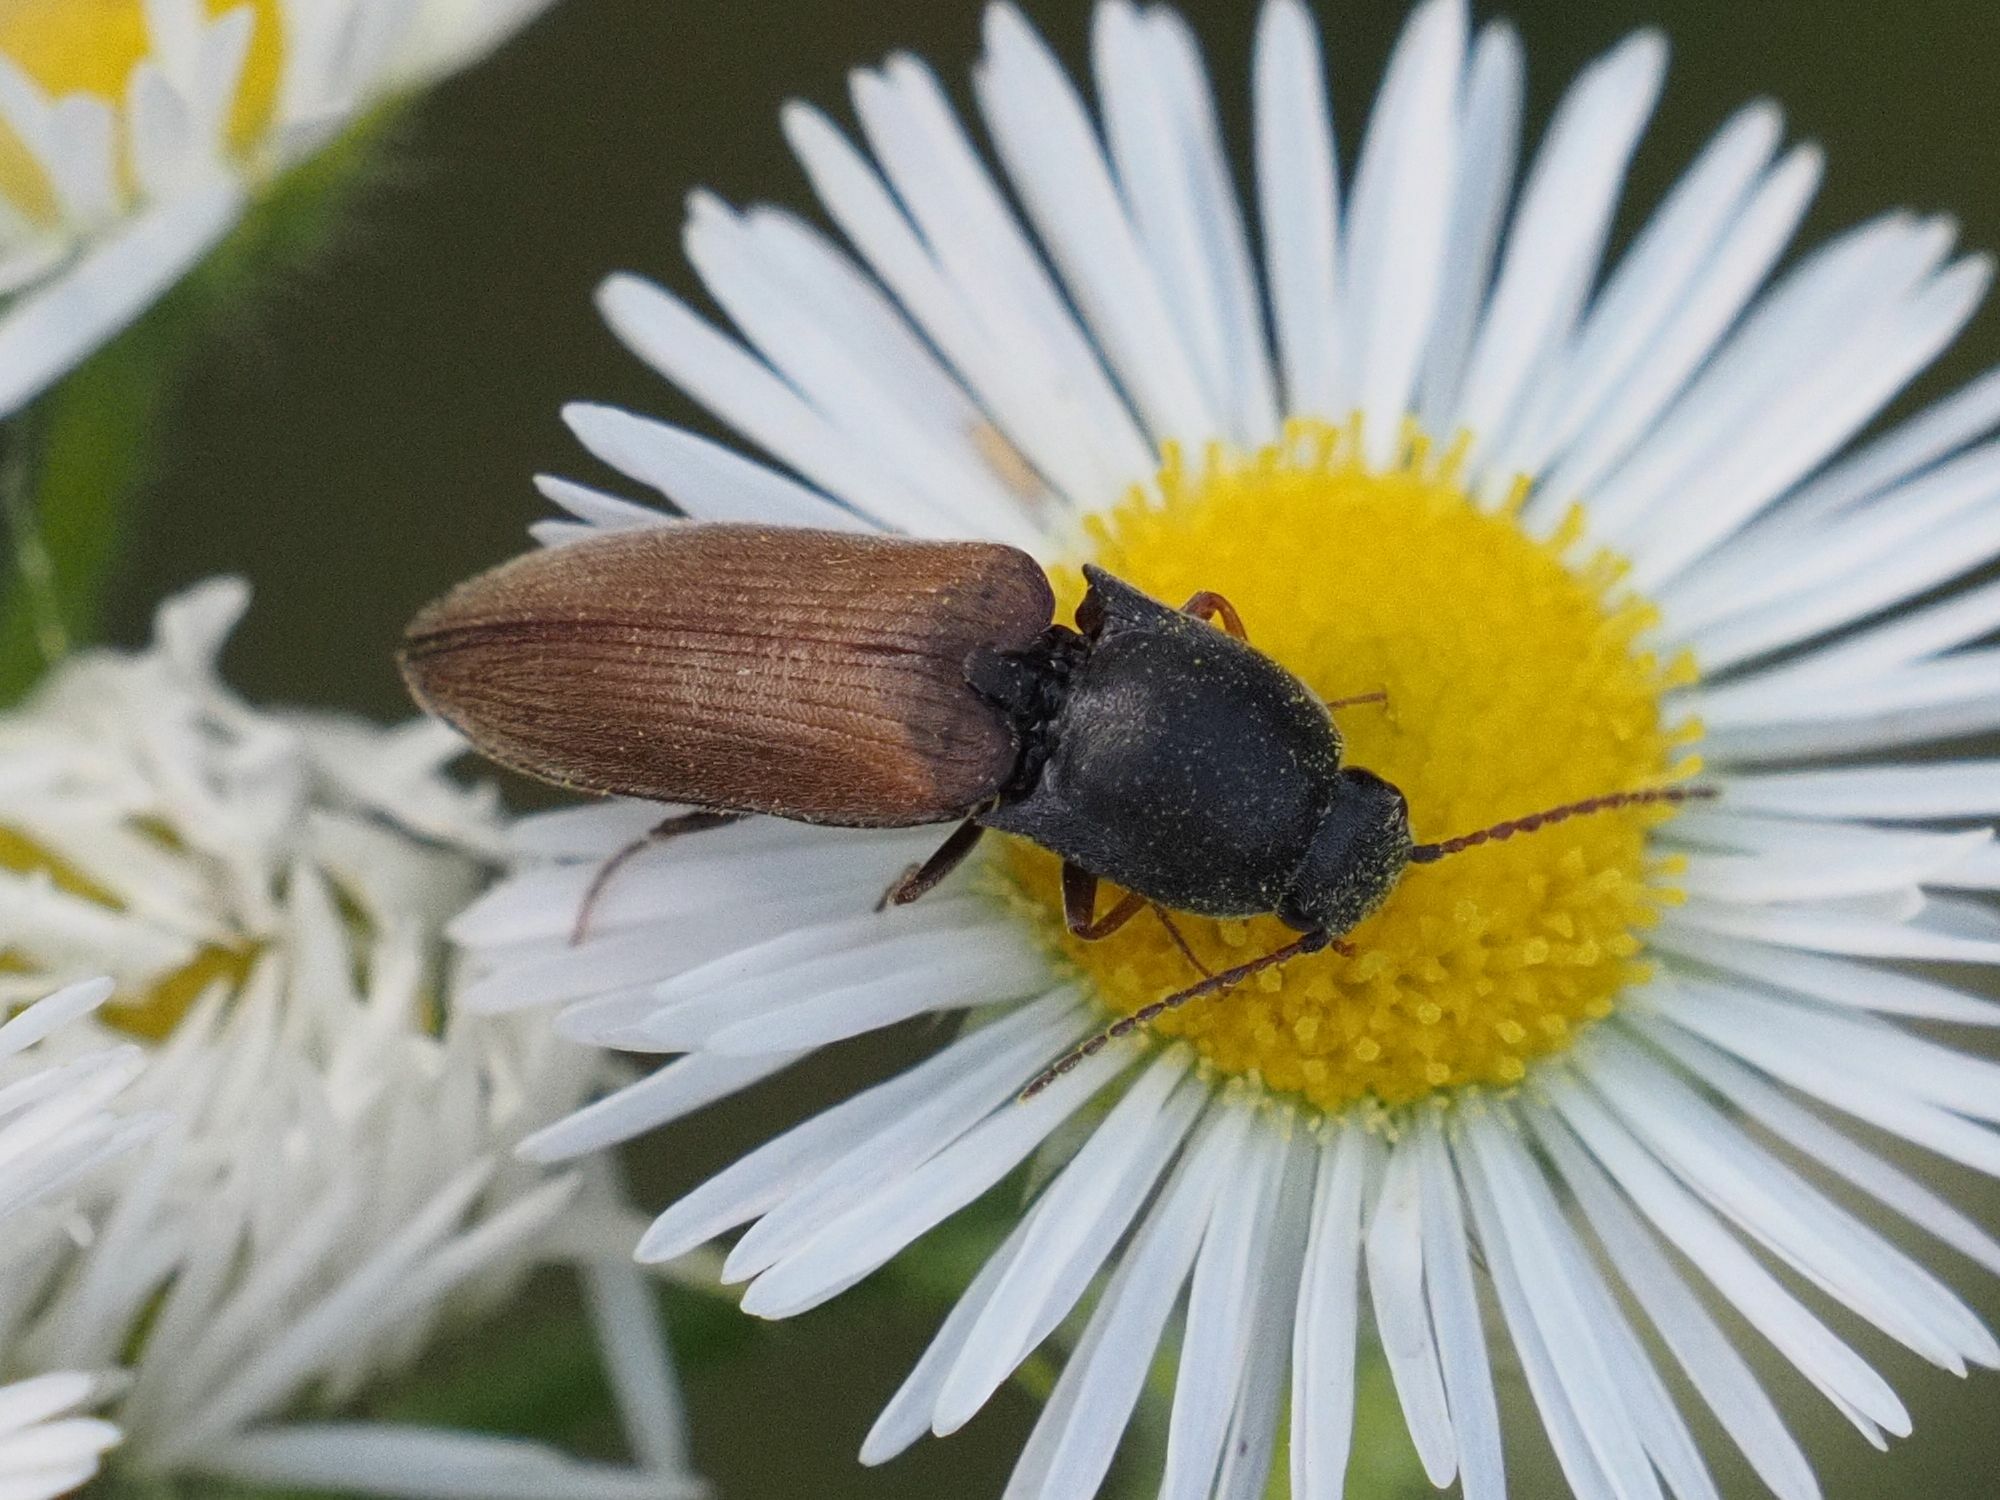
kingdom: Animalia
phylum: Arthropoda
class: Insecta
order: Coleoptera
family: Elateridae
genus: Agriotes
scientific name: Agriotes ustulatus
